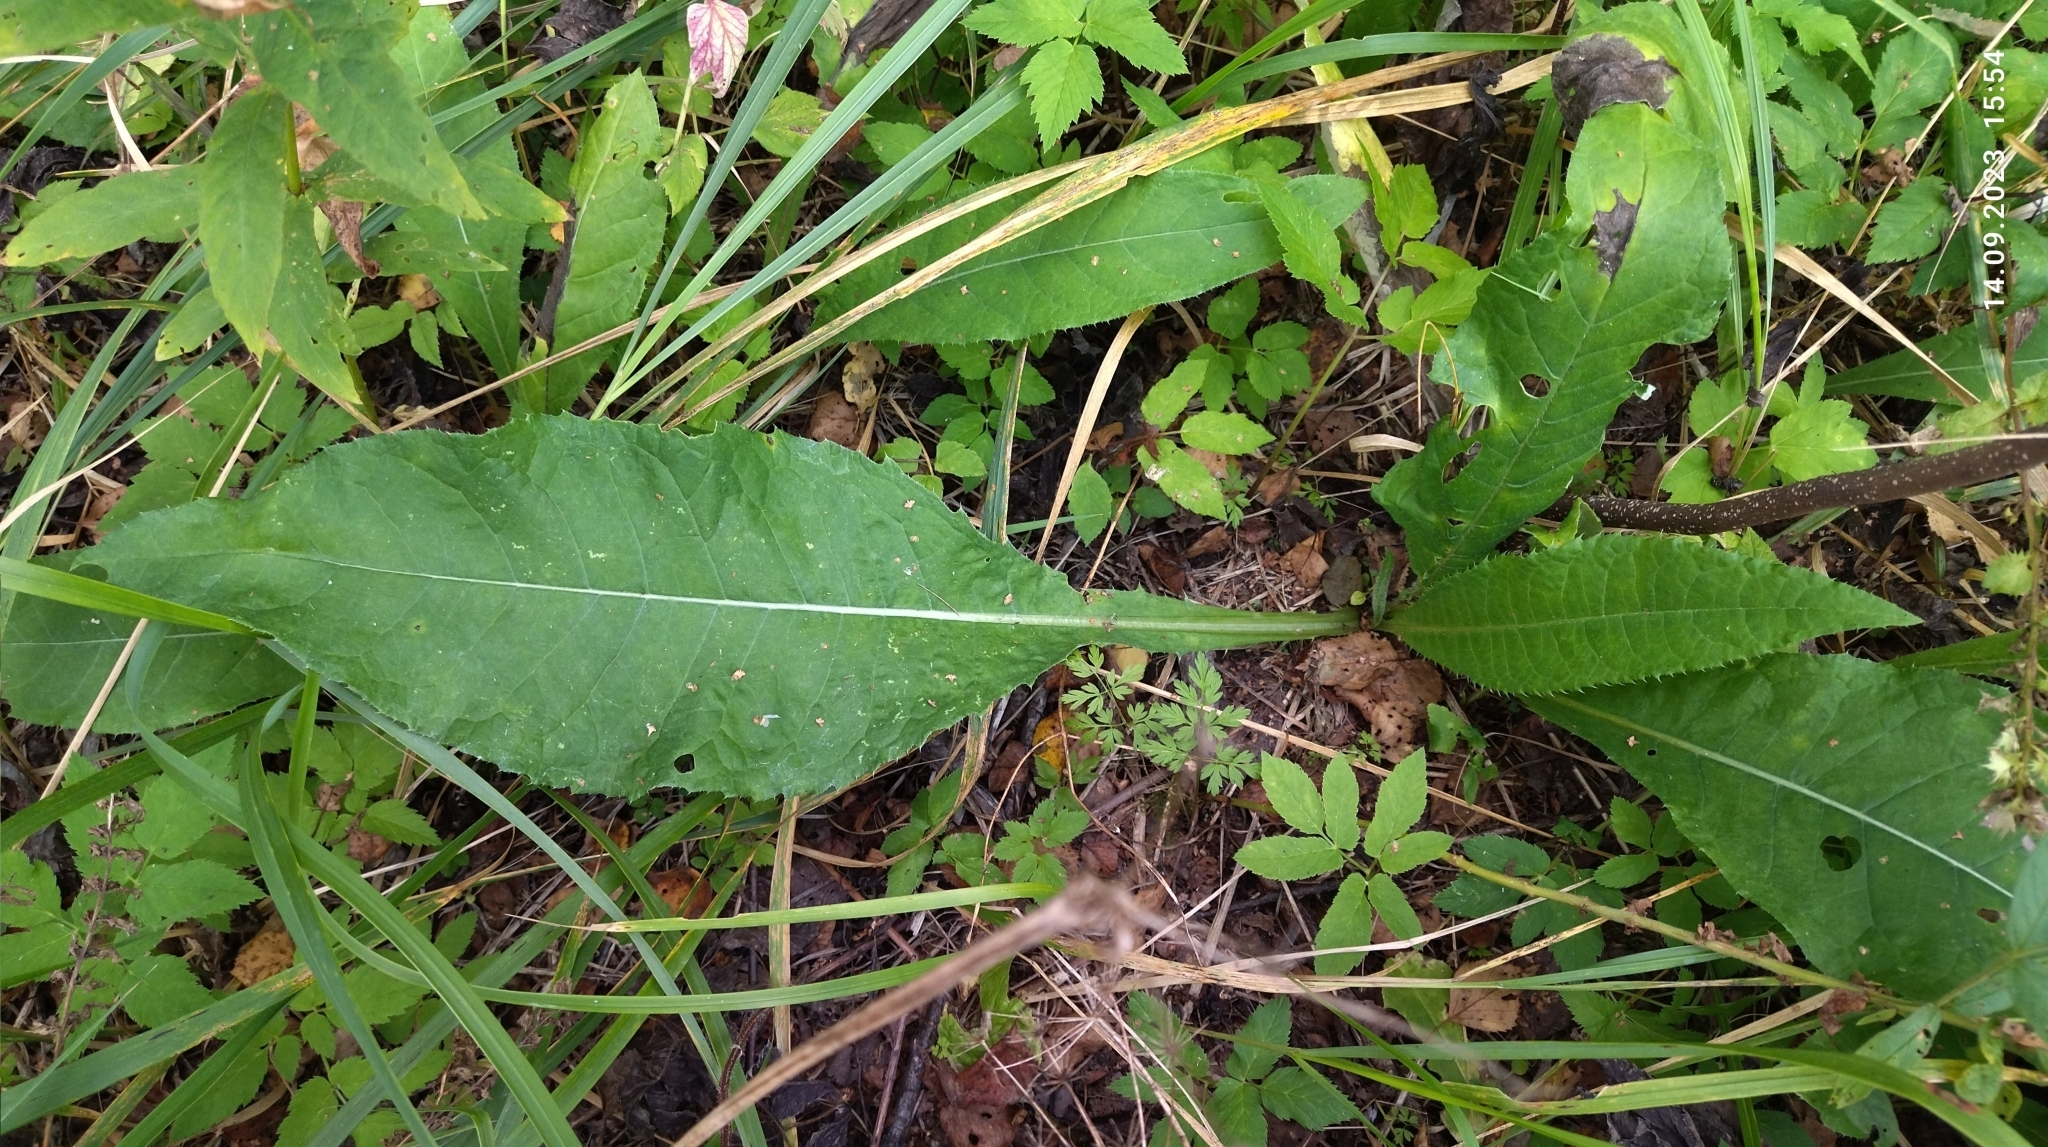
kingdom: Plantae
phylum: Tracheophyta
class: Magnoliopsida
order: Asterales
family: Asteraceae
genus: Cirsium
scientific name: Cirsium heterophyllum
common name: Melancholy thistle
